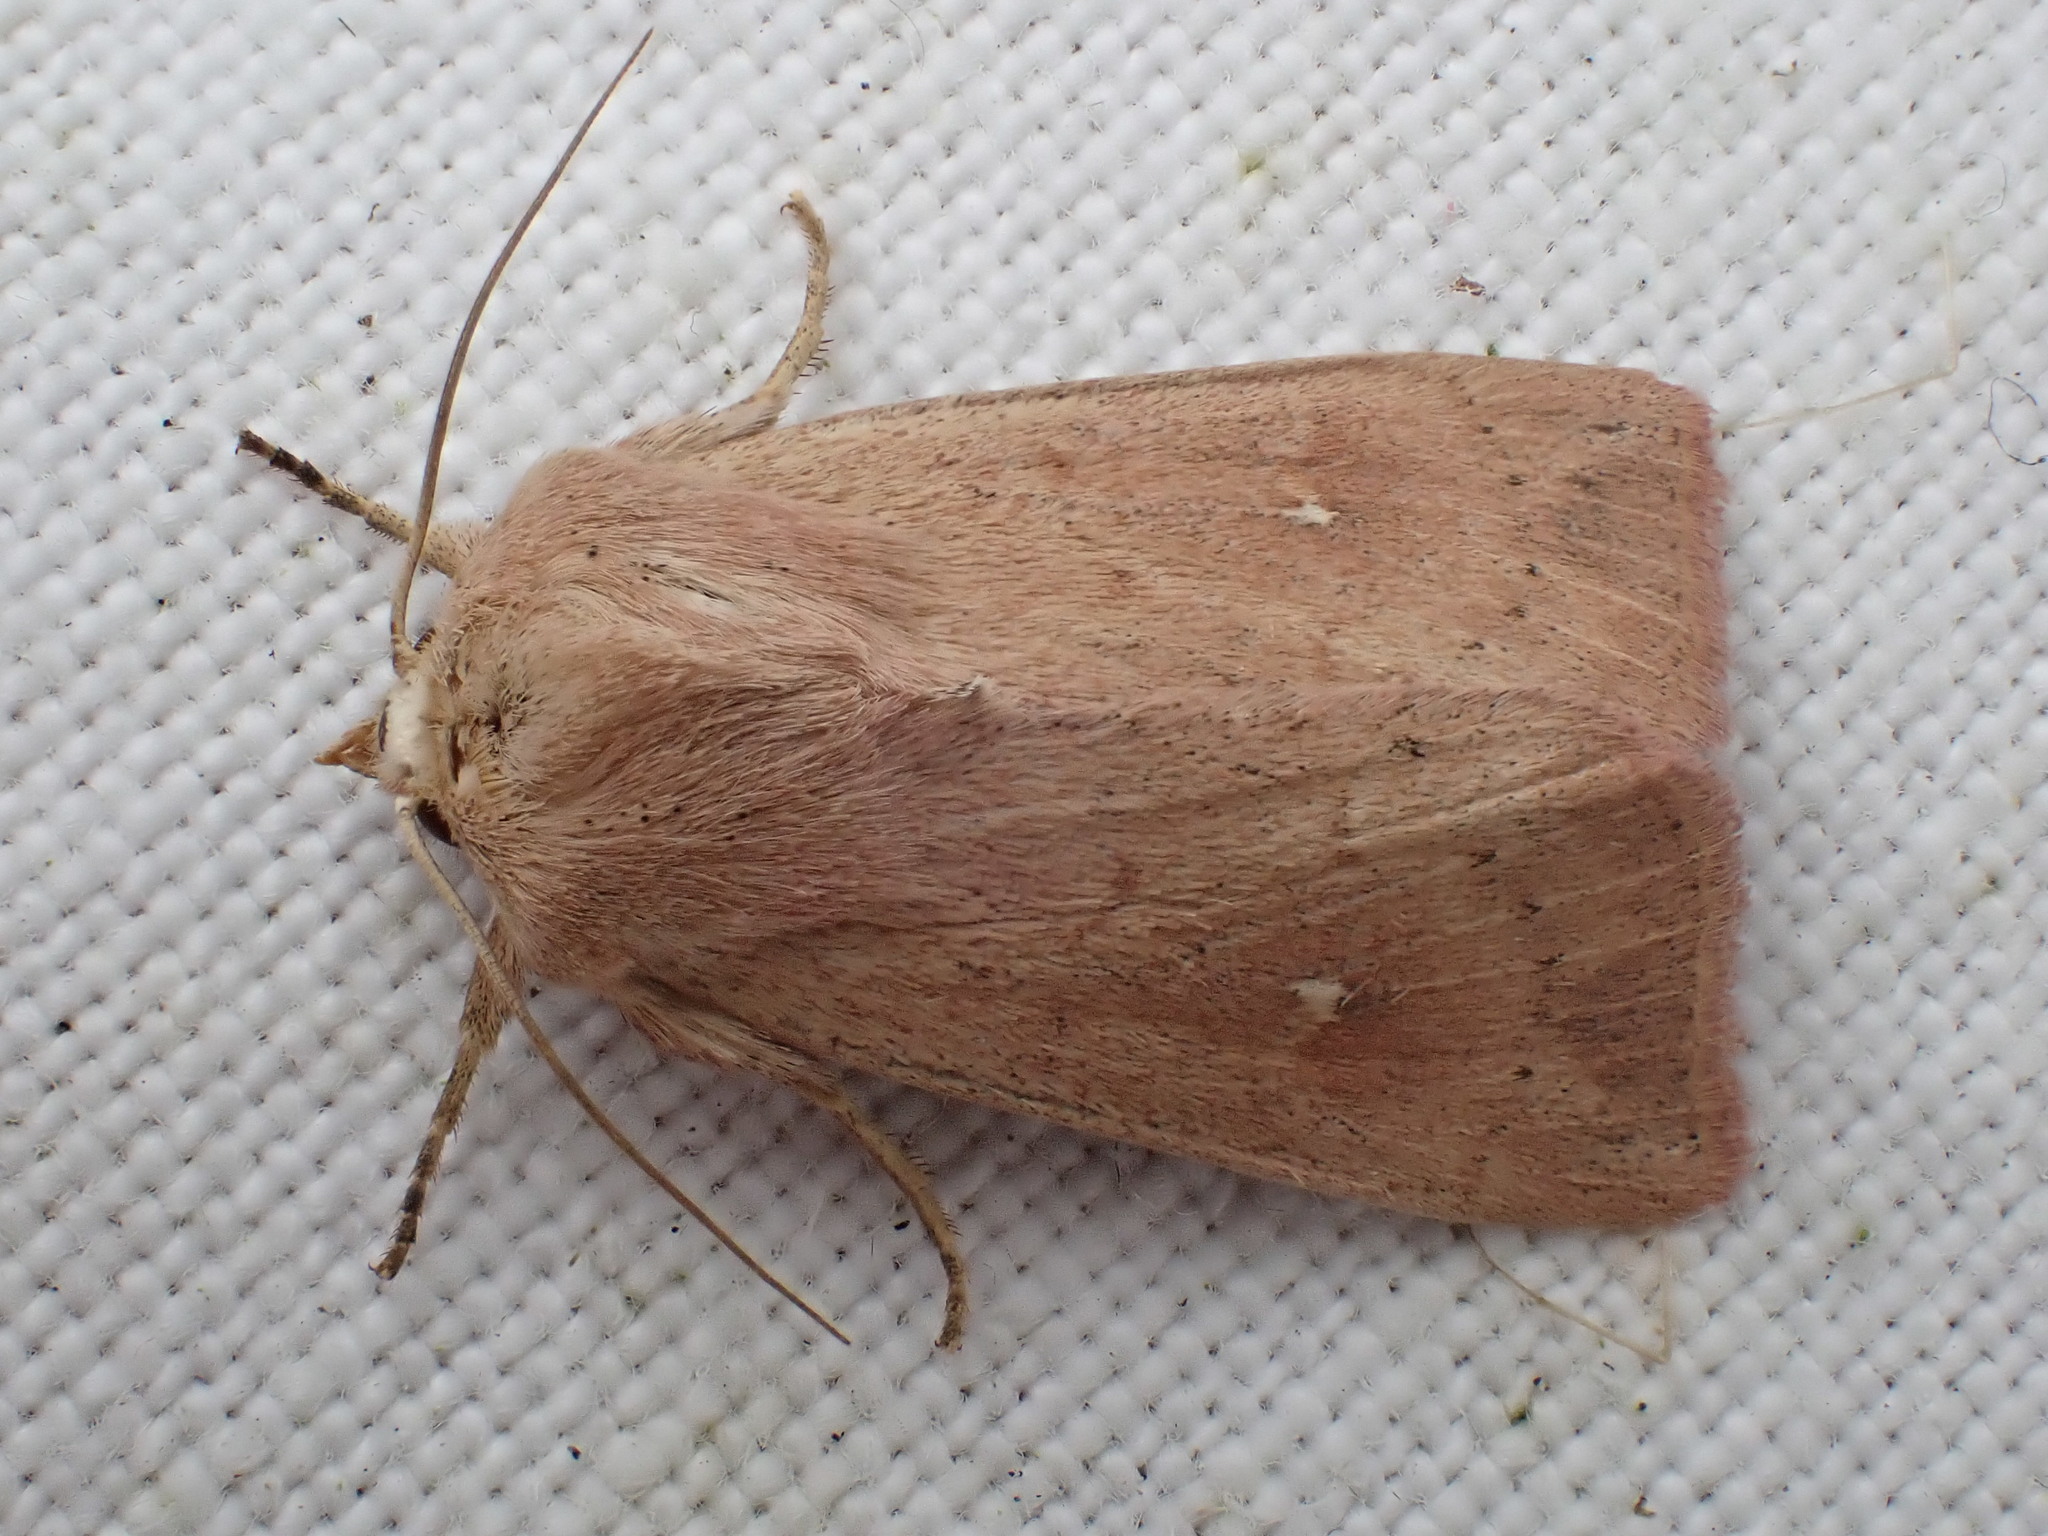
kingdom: Animalia
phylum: Arthropoda
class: Insecta
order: Lepidoptera
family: Noctuidae
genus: Mythimna
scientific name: Mythimna ferrago
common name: Clay
